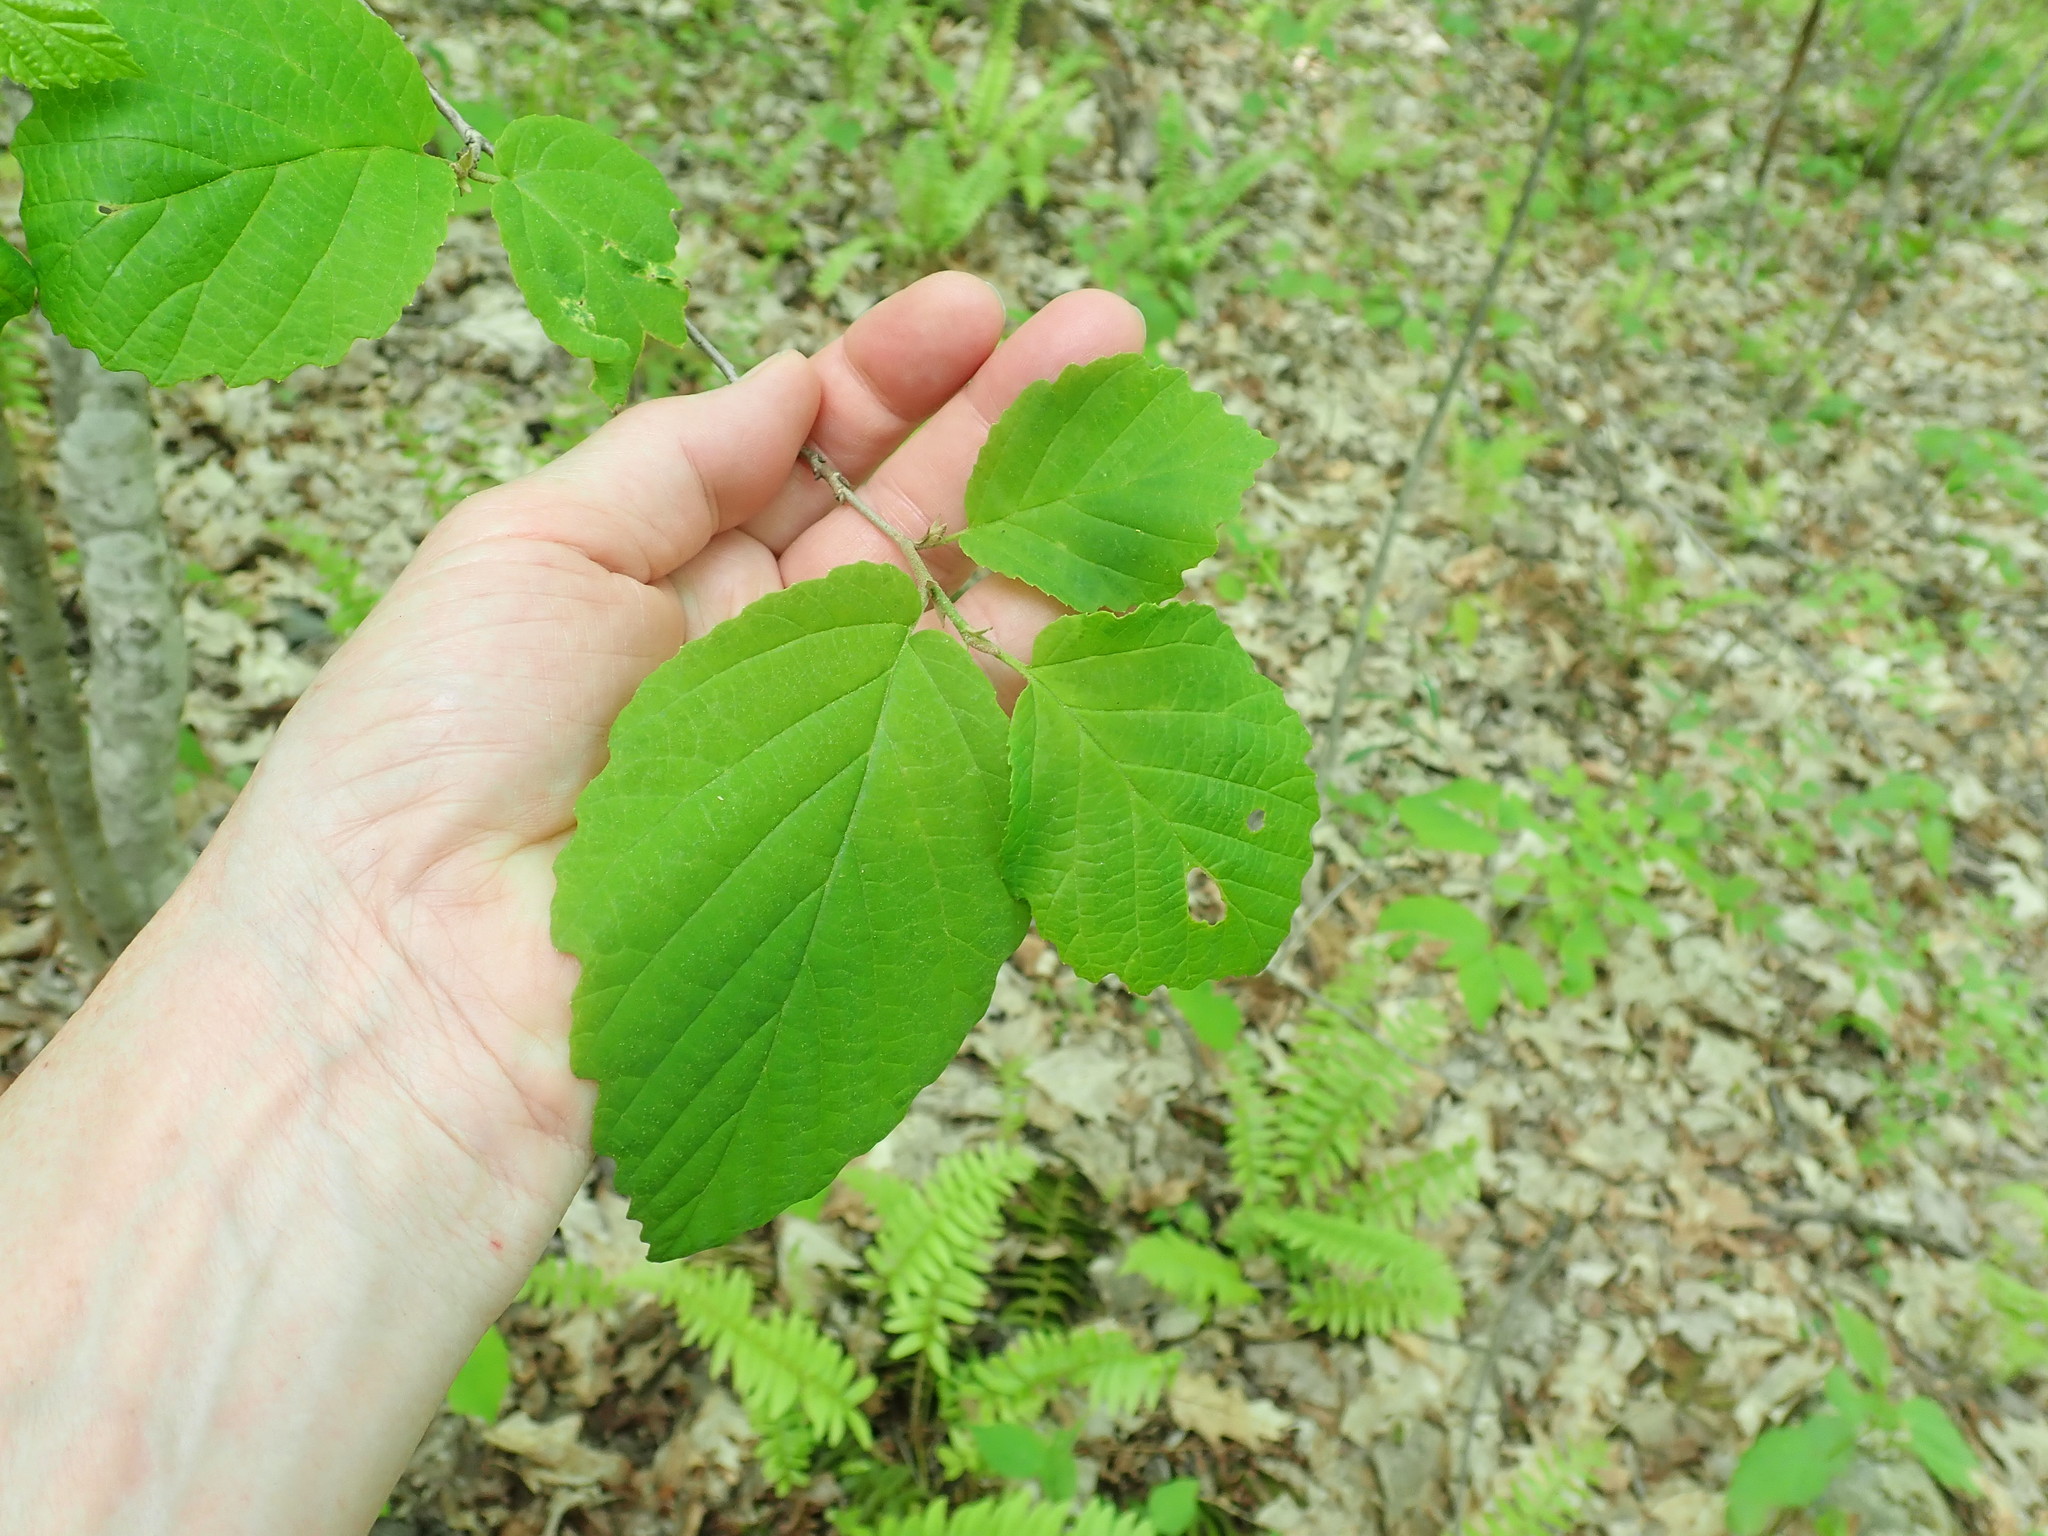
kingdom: Plantae
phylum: Tracheophyta
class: Magnoliopsida
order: Saxifragales
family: Hamamelidaceae
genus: Hamamelis
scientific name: Hamamelis virginiana
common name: Witch-hazel
